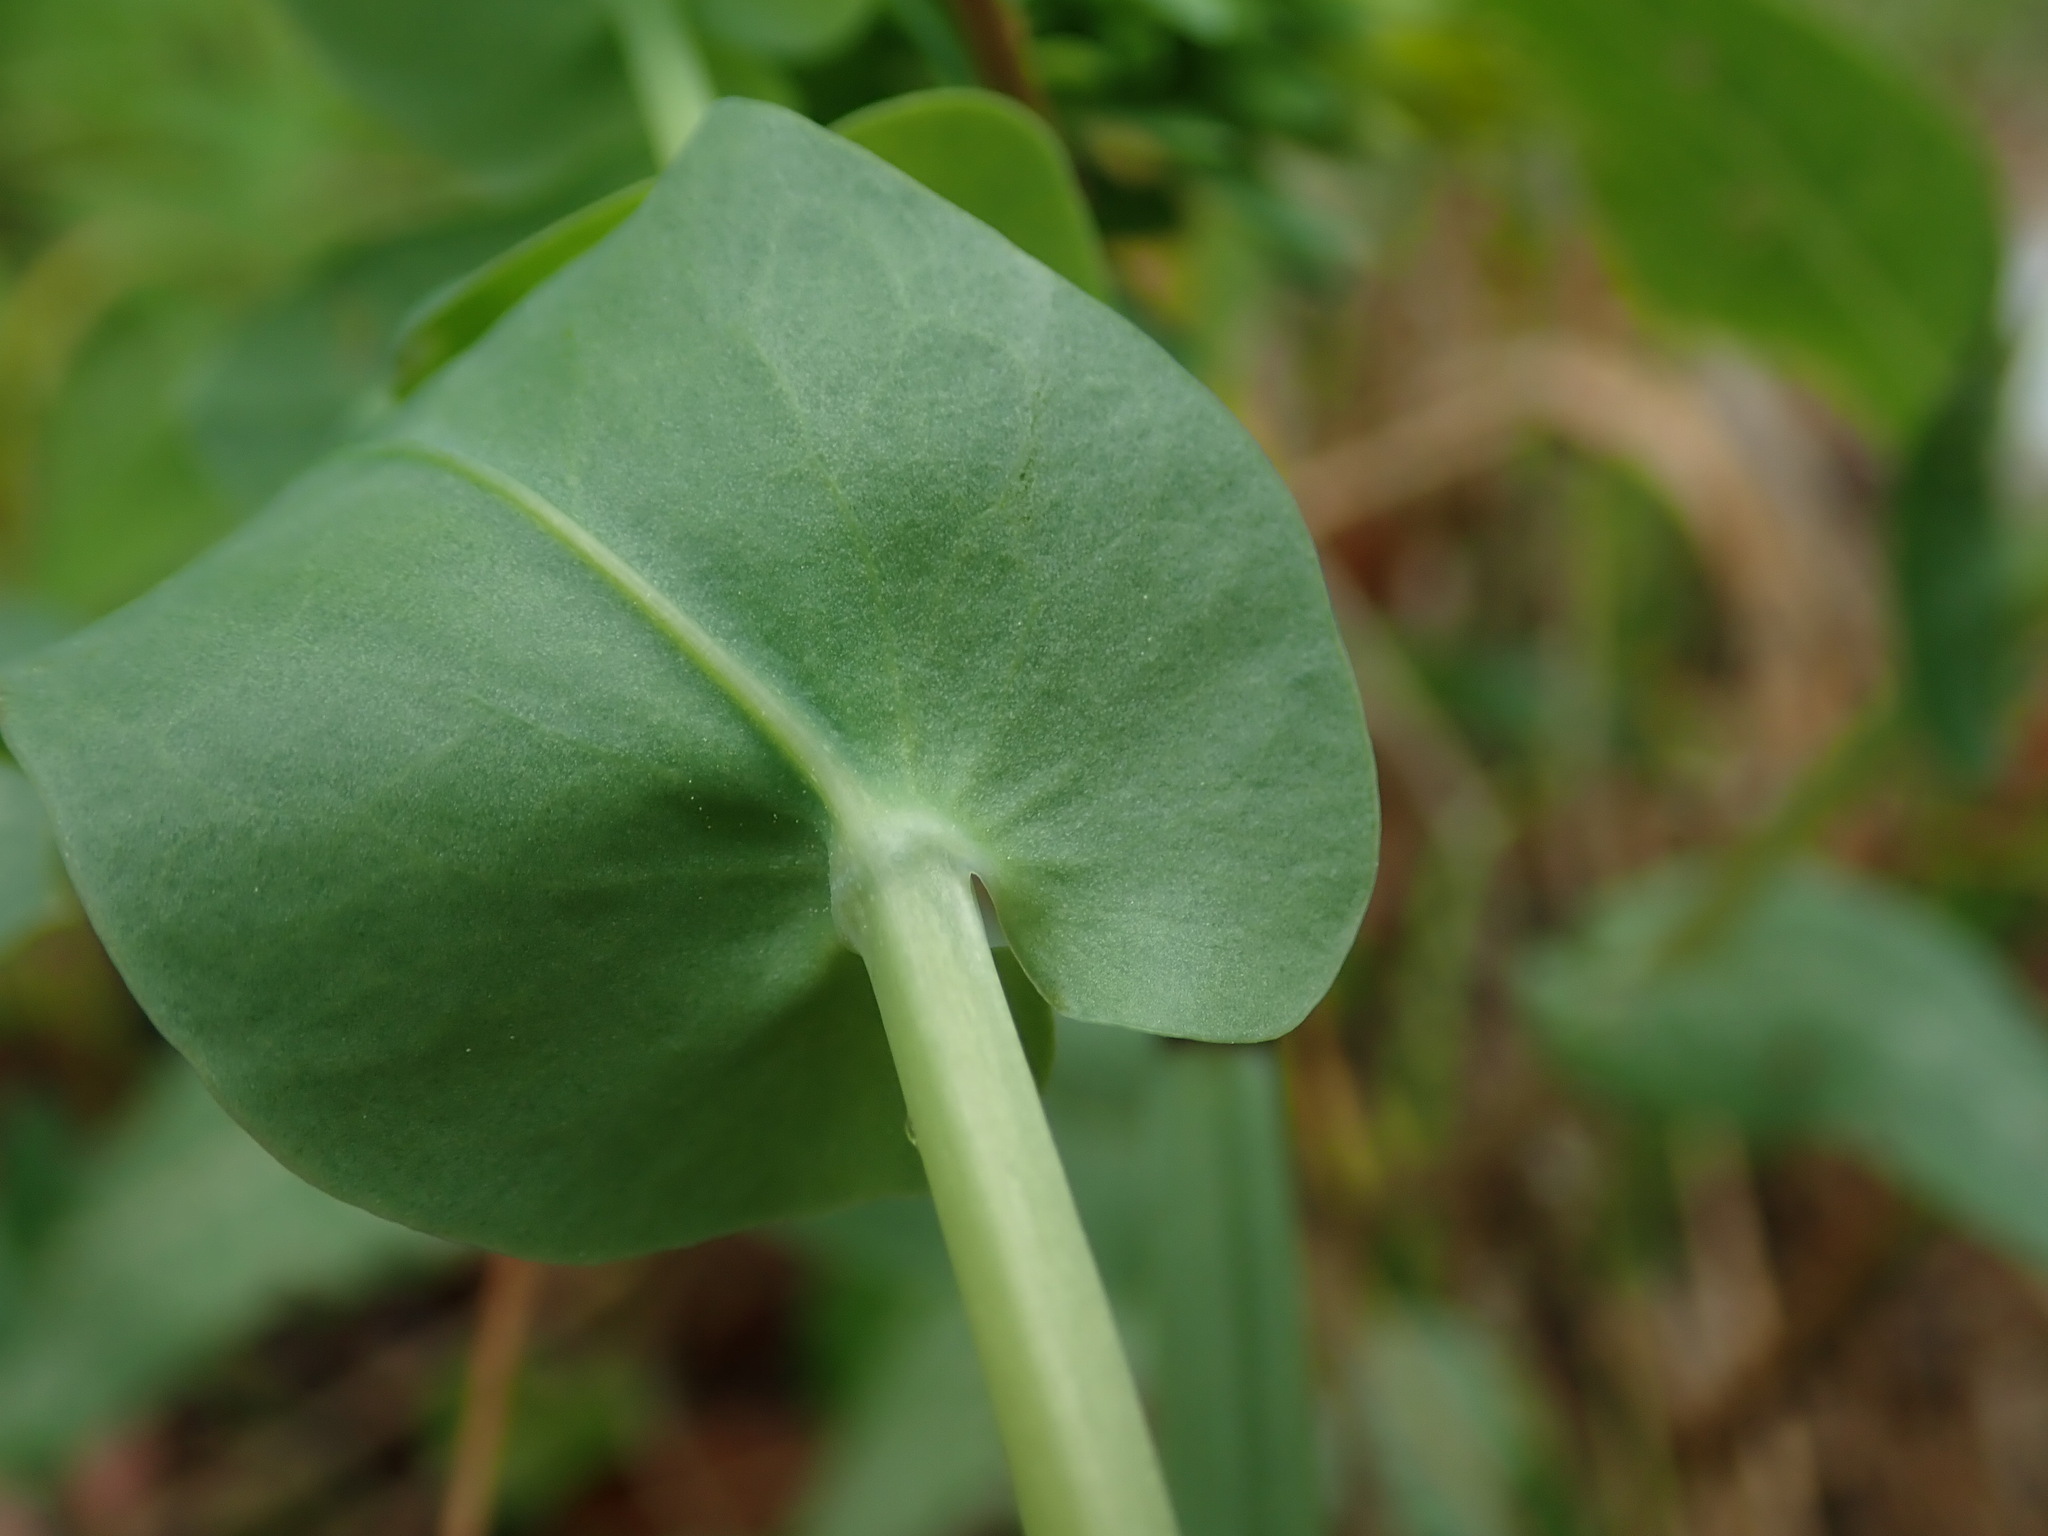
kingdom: Plantae
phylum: Tracheophyta
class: Magnoliopsida
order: Boraginales
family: Boraginaceae
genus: Cerinthe
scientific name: Cerinthe minor
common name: Lesser honeywort
